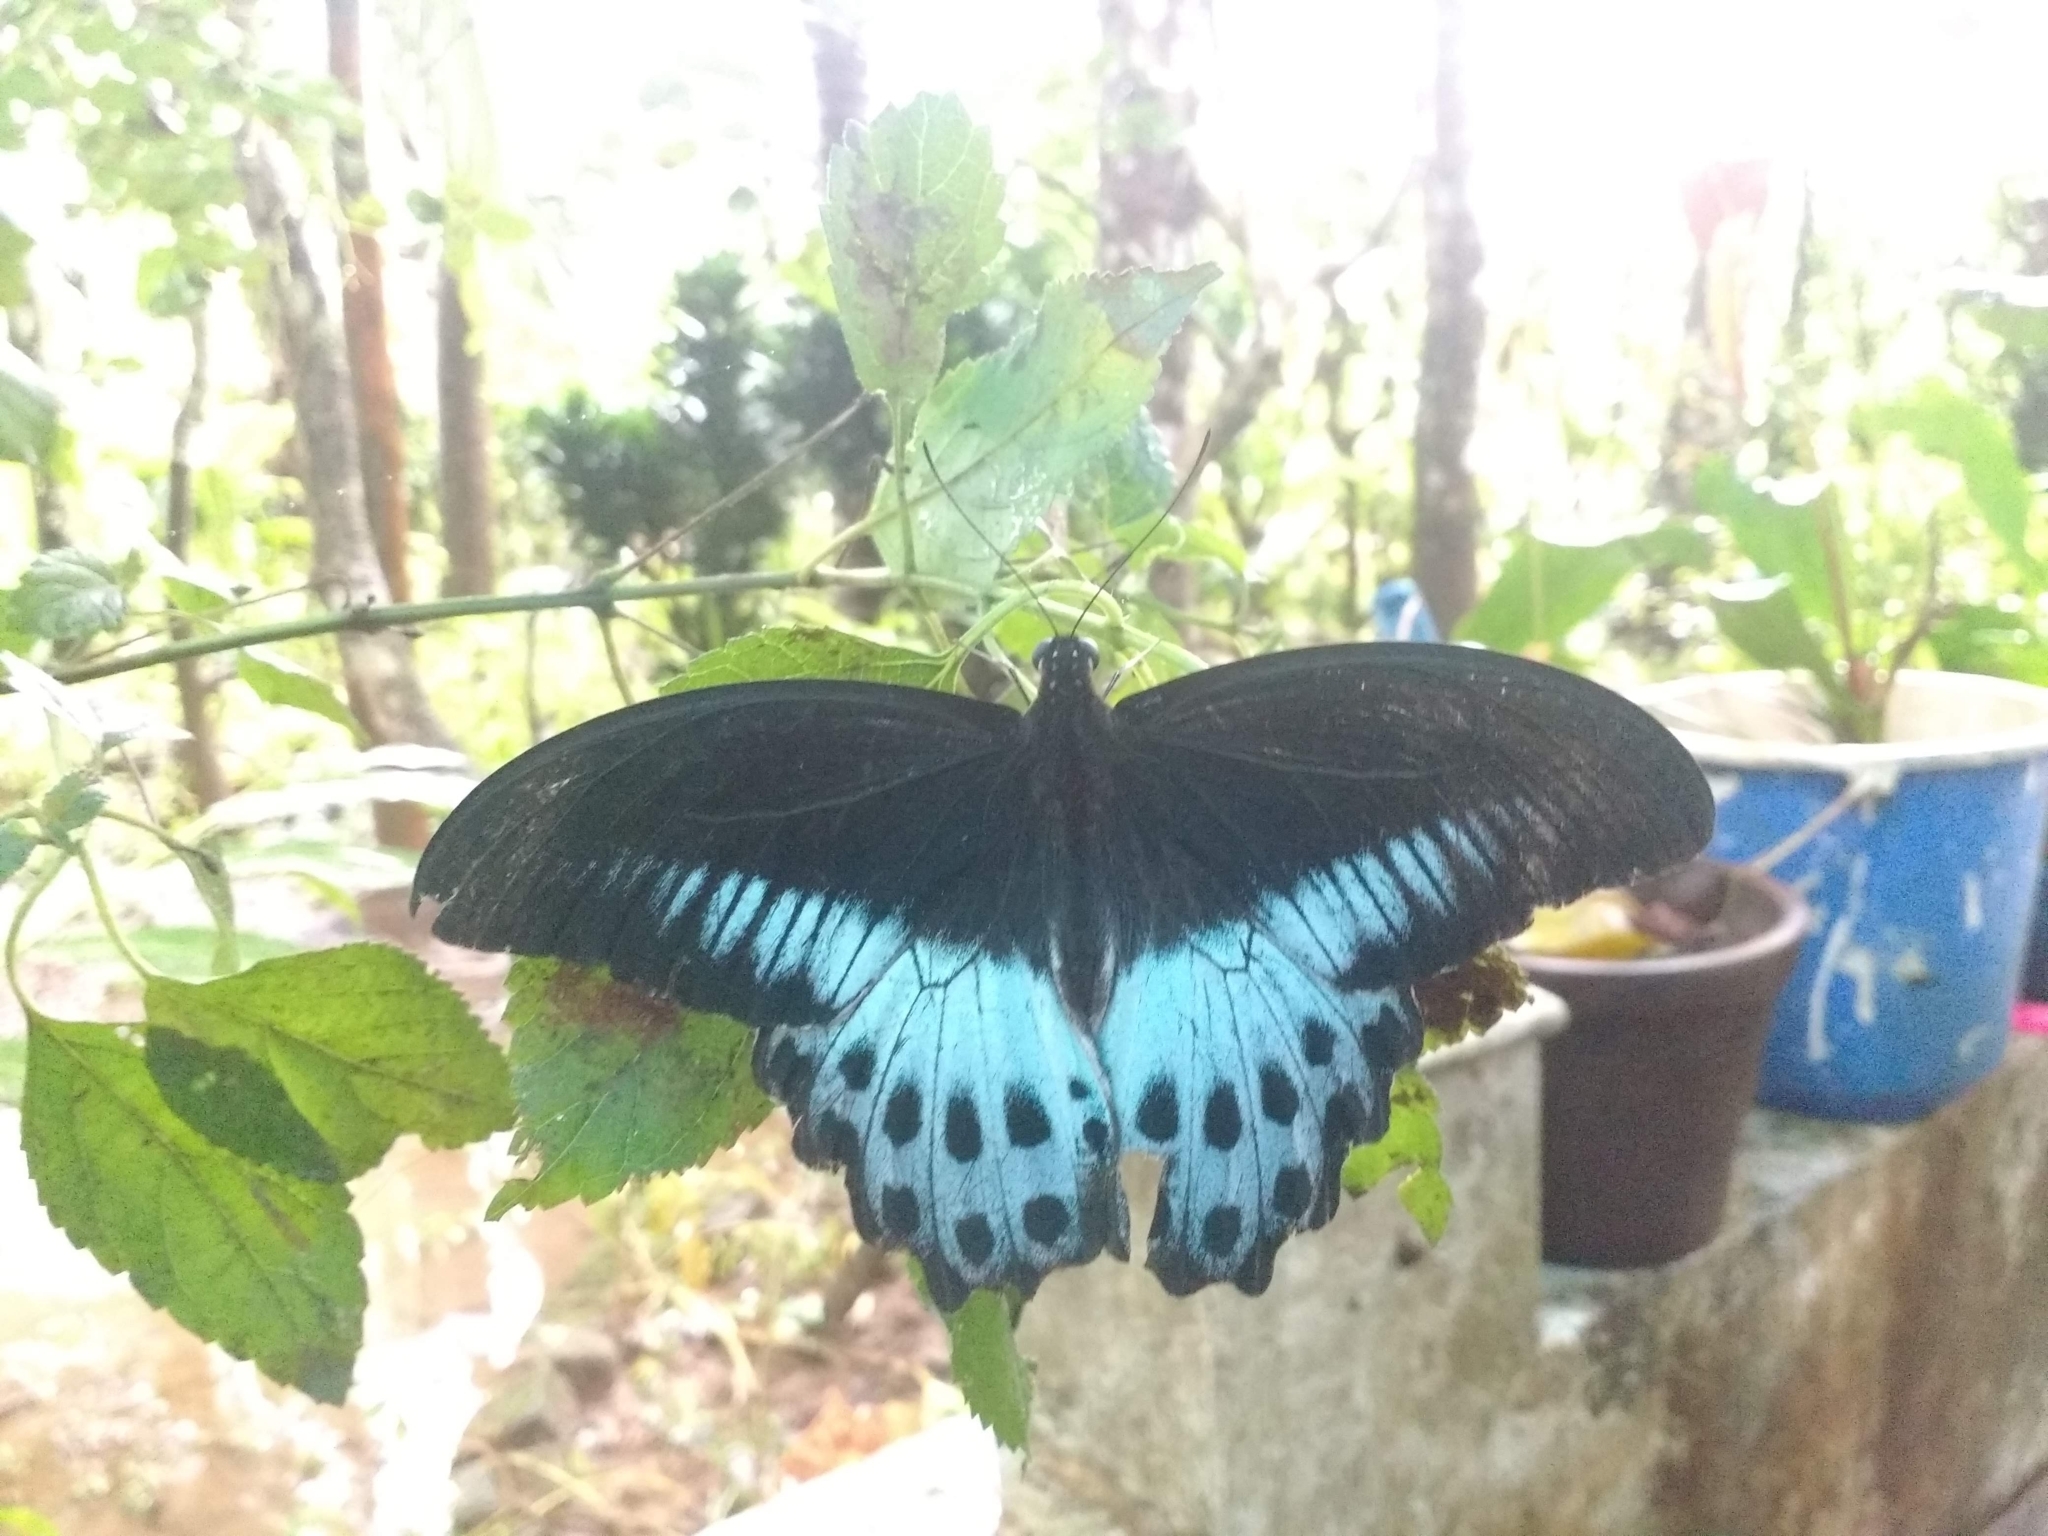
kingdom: Animalia
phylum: Arthropoda
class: Insecta
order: Lepidoptera
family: Papilionidae
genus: Papilio
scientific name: Papilio memnon
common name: Great mormon
